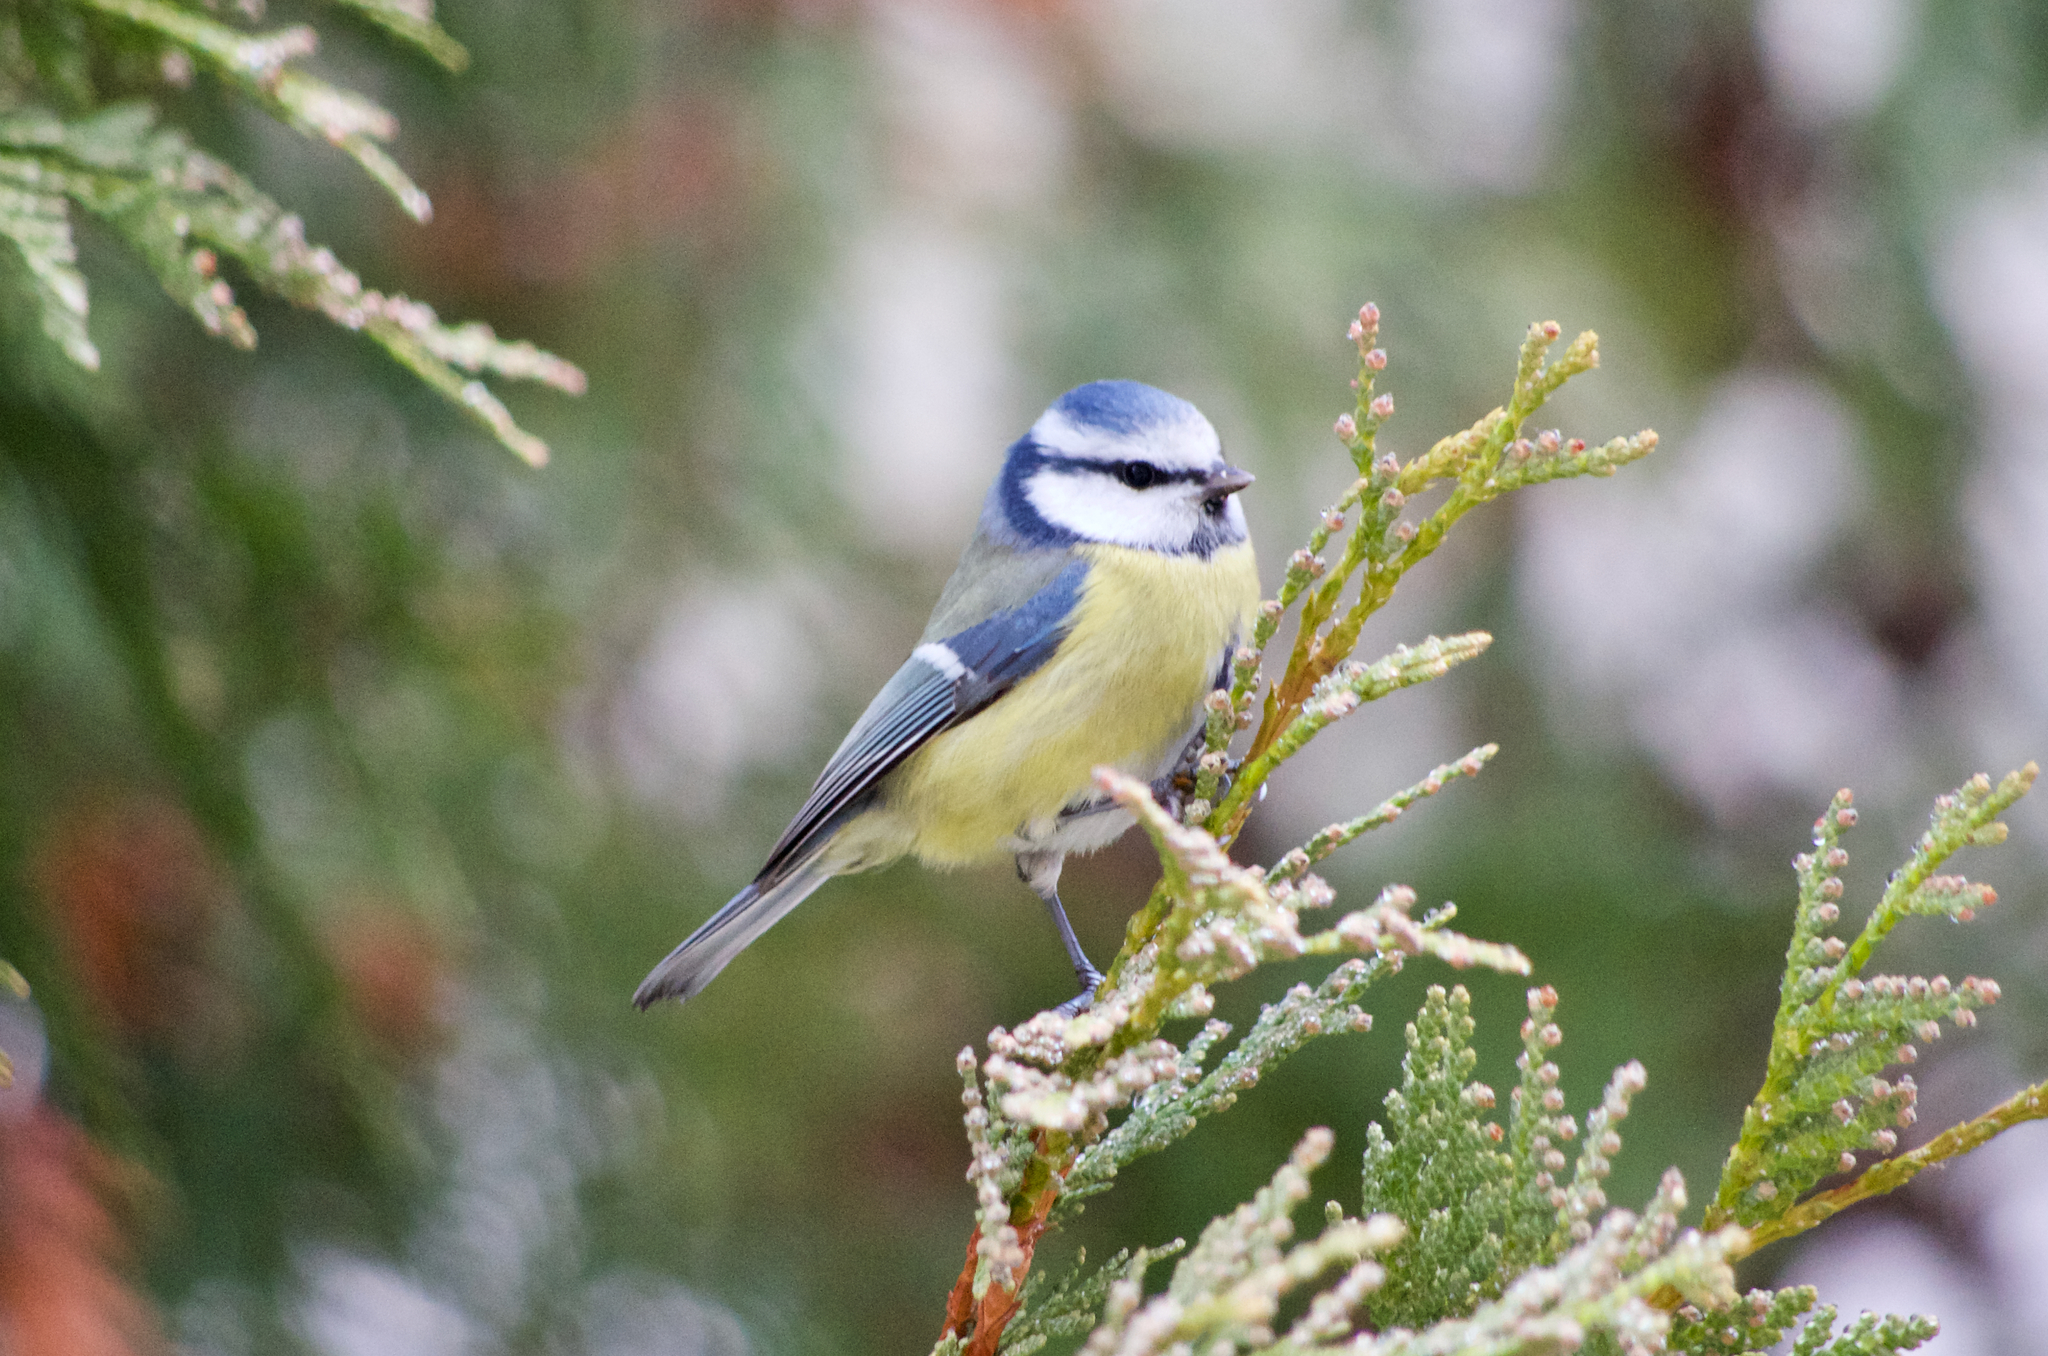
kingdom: Animalia
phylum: Chordata
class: Aves
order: Passeriformes
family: Paridae
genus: Cyanistes
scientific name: Cyanistes caeruleus
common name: Eurasian blue tit
